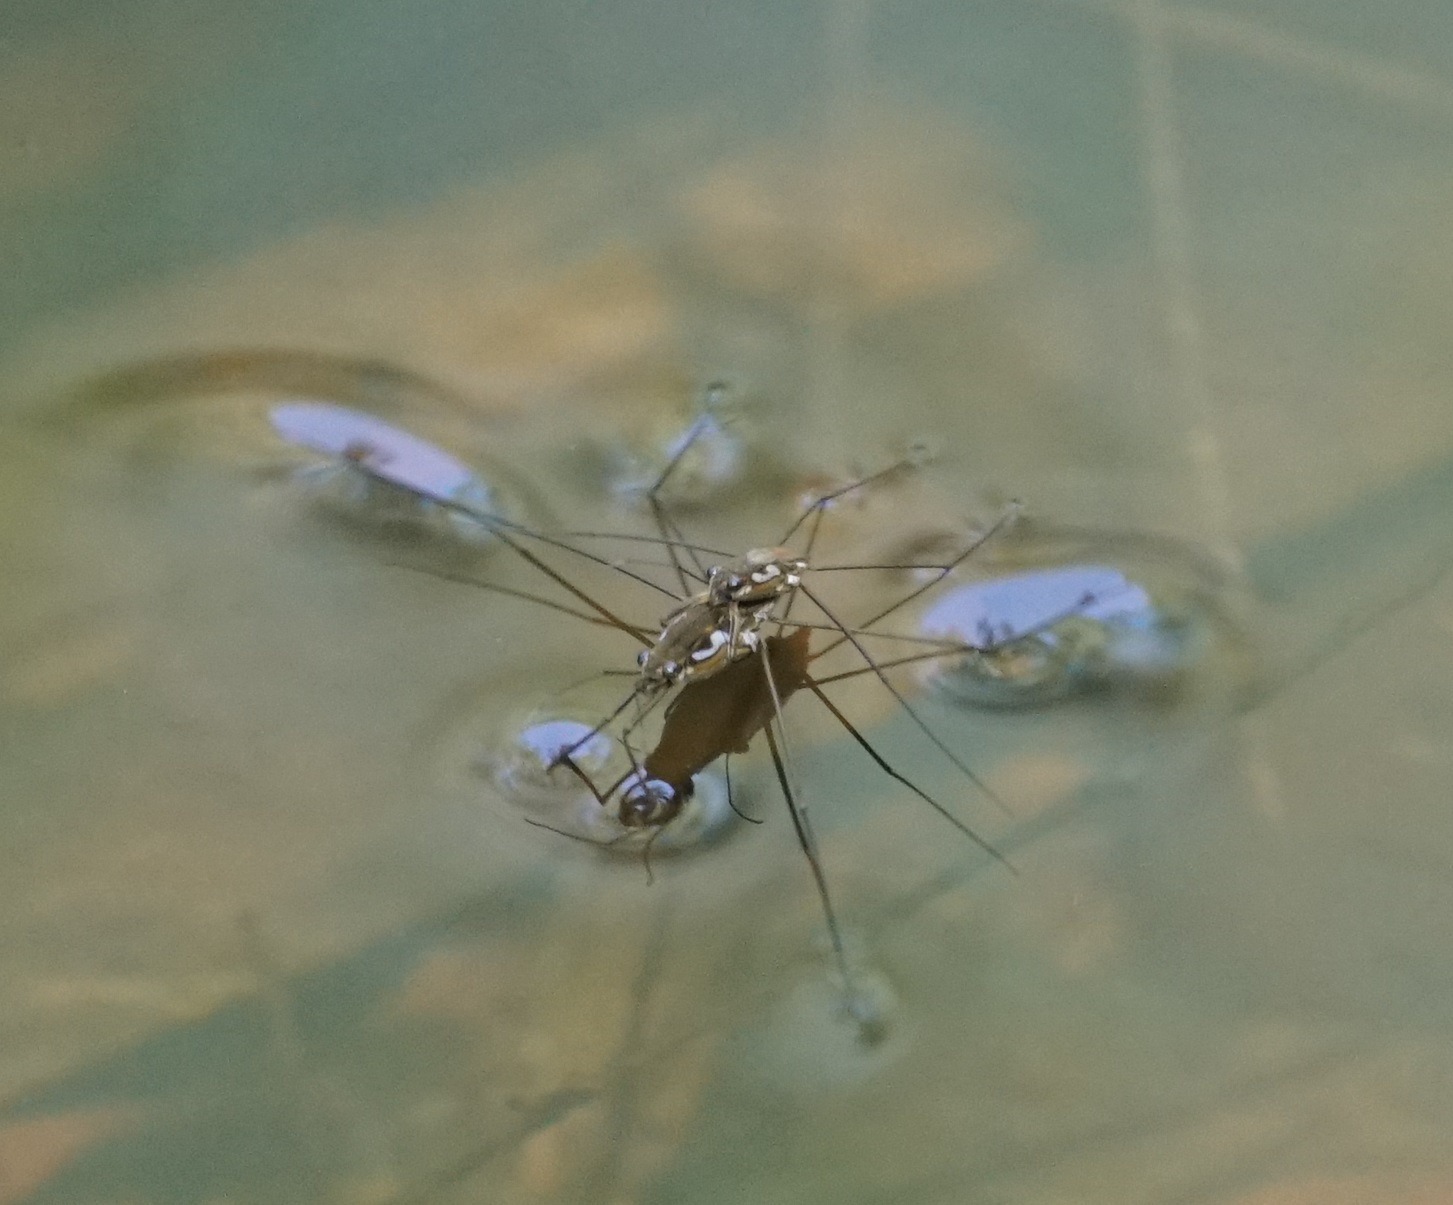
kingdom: Animalia
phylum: Arthropoda
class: Insecta
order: Hemiptera
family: Gerridae
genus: Tenagogerris
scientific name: Tenagogerris euphrosyne
